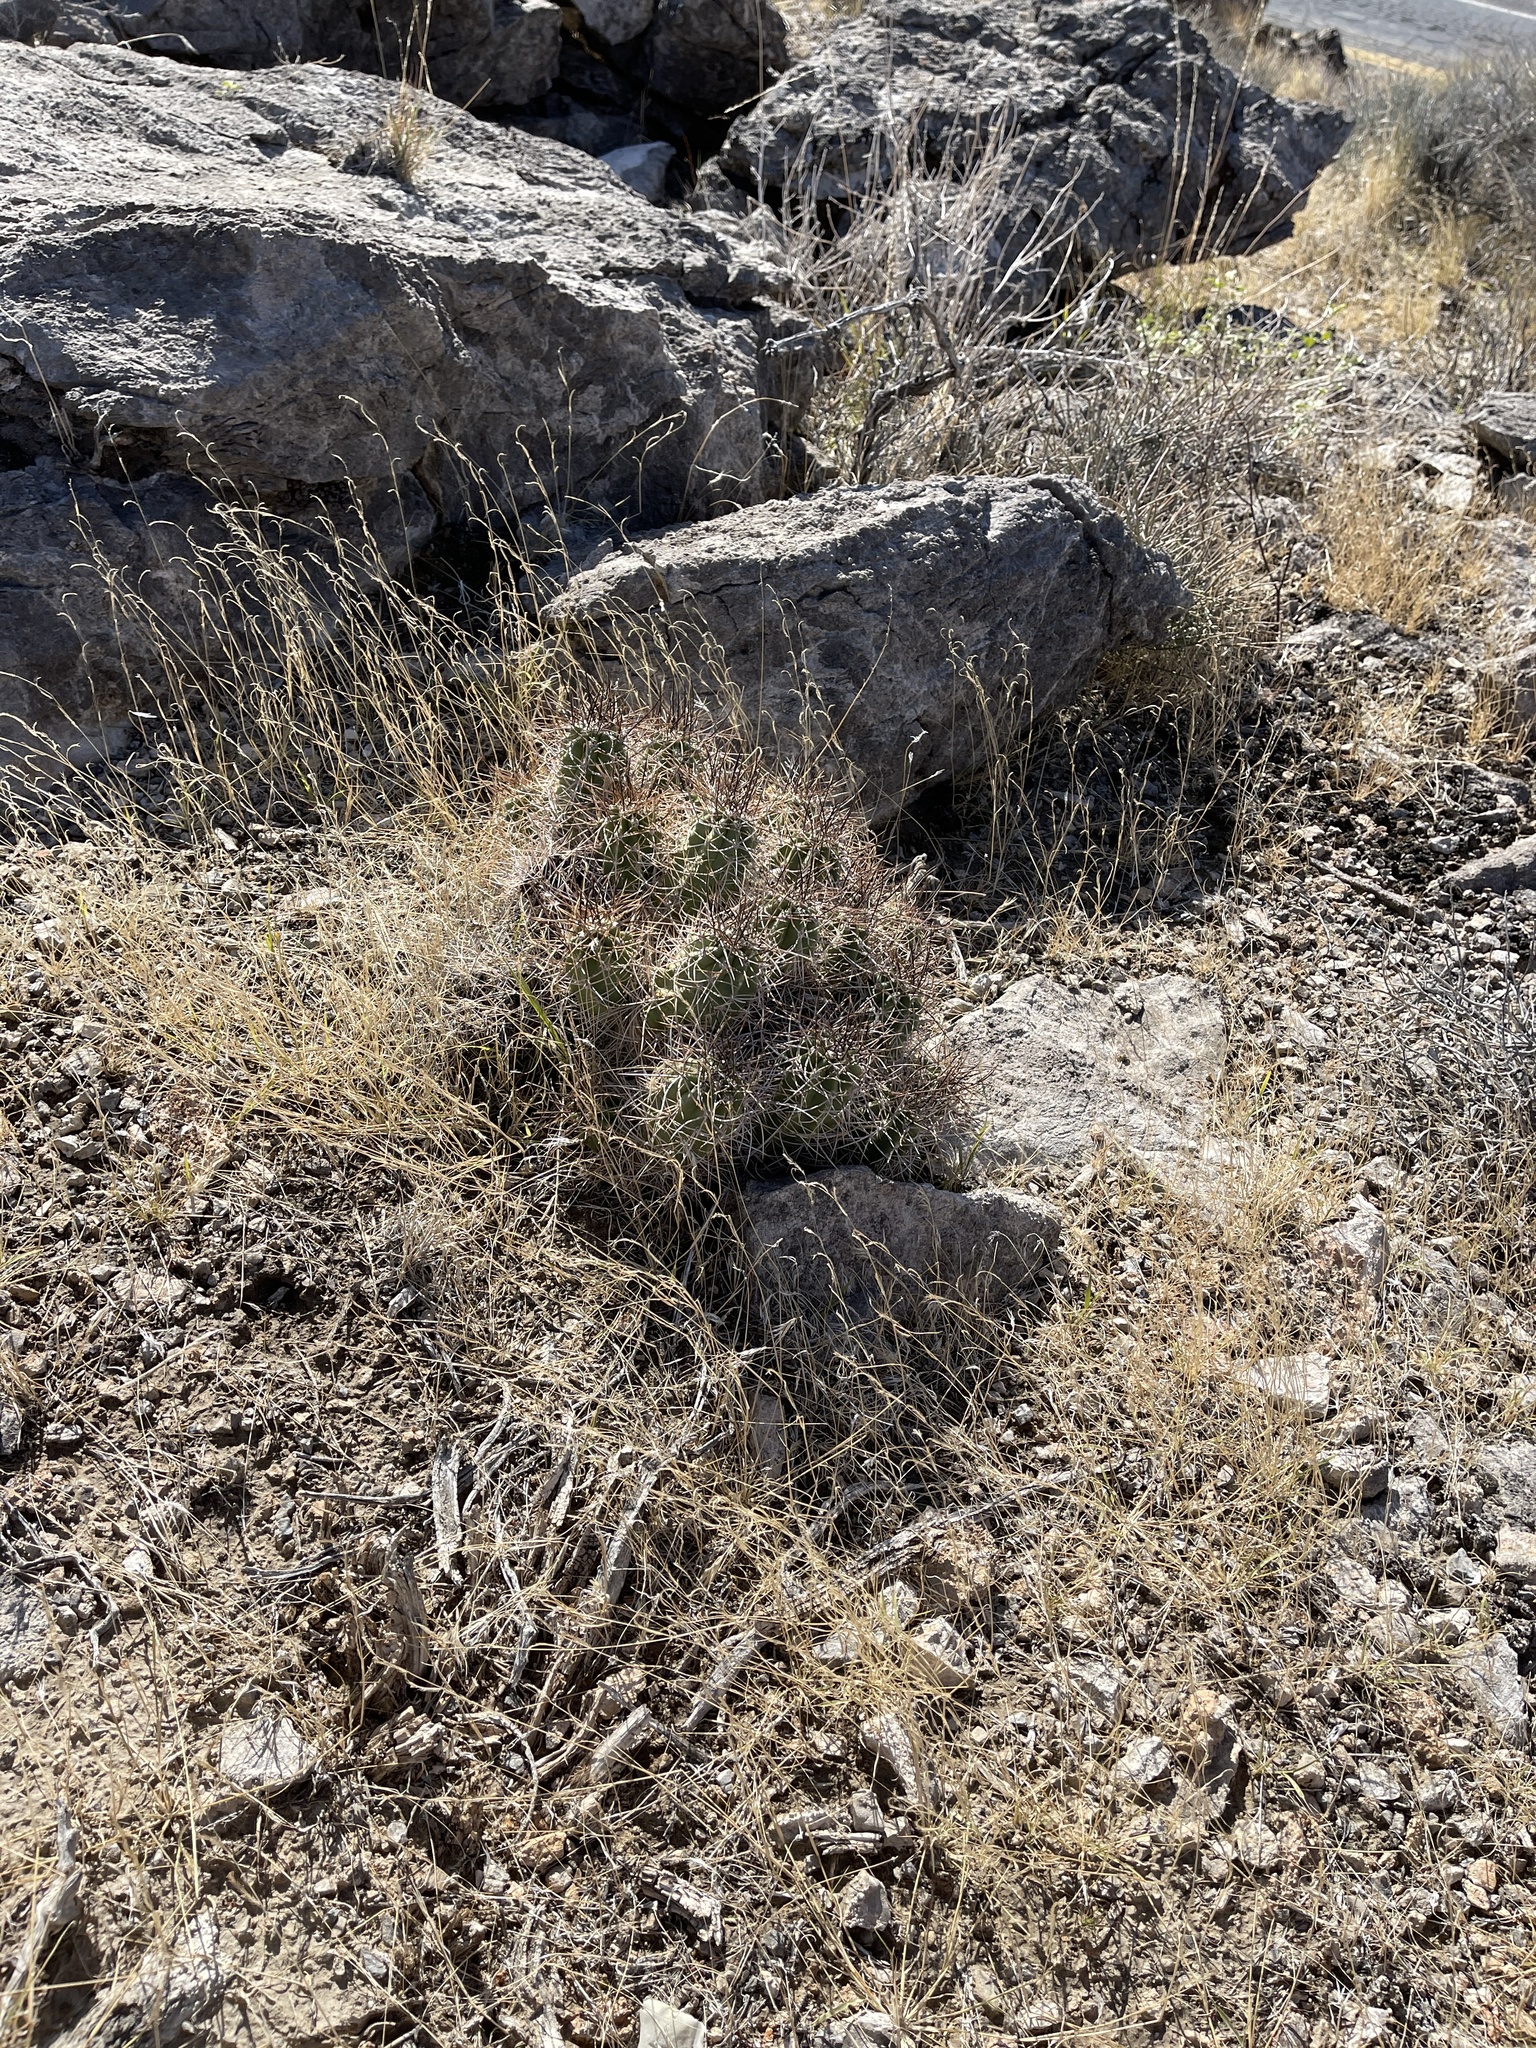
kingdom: Plantae
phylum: Tracheophyta
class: Magnoliopsida
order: Caryophyllales
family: Cactaceae
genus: Echinocereus
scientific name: Echinocereus triglochidiatus
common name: Claretcup hedgehog
